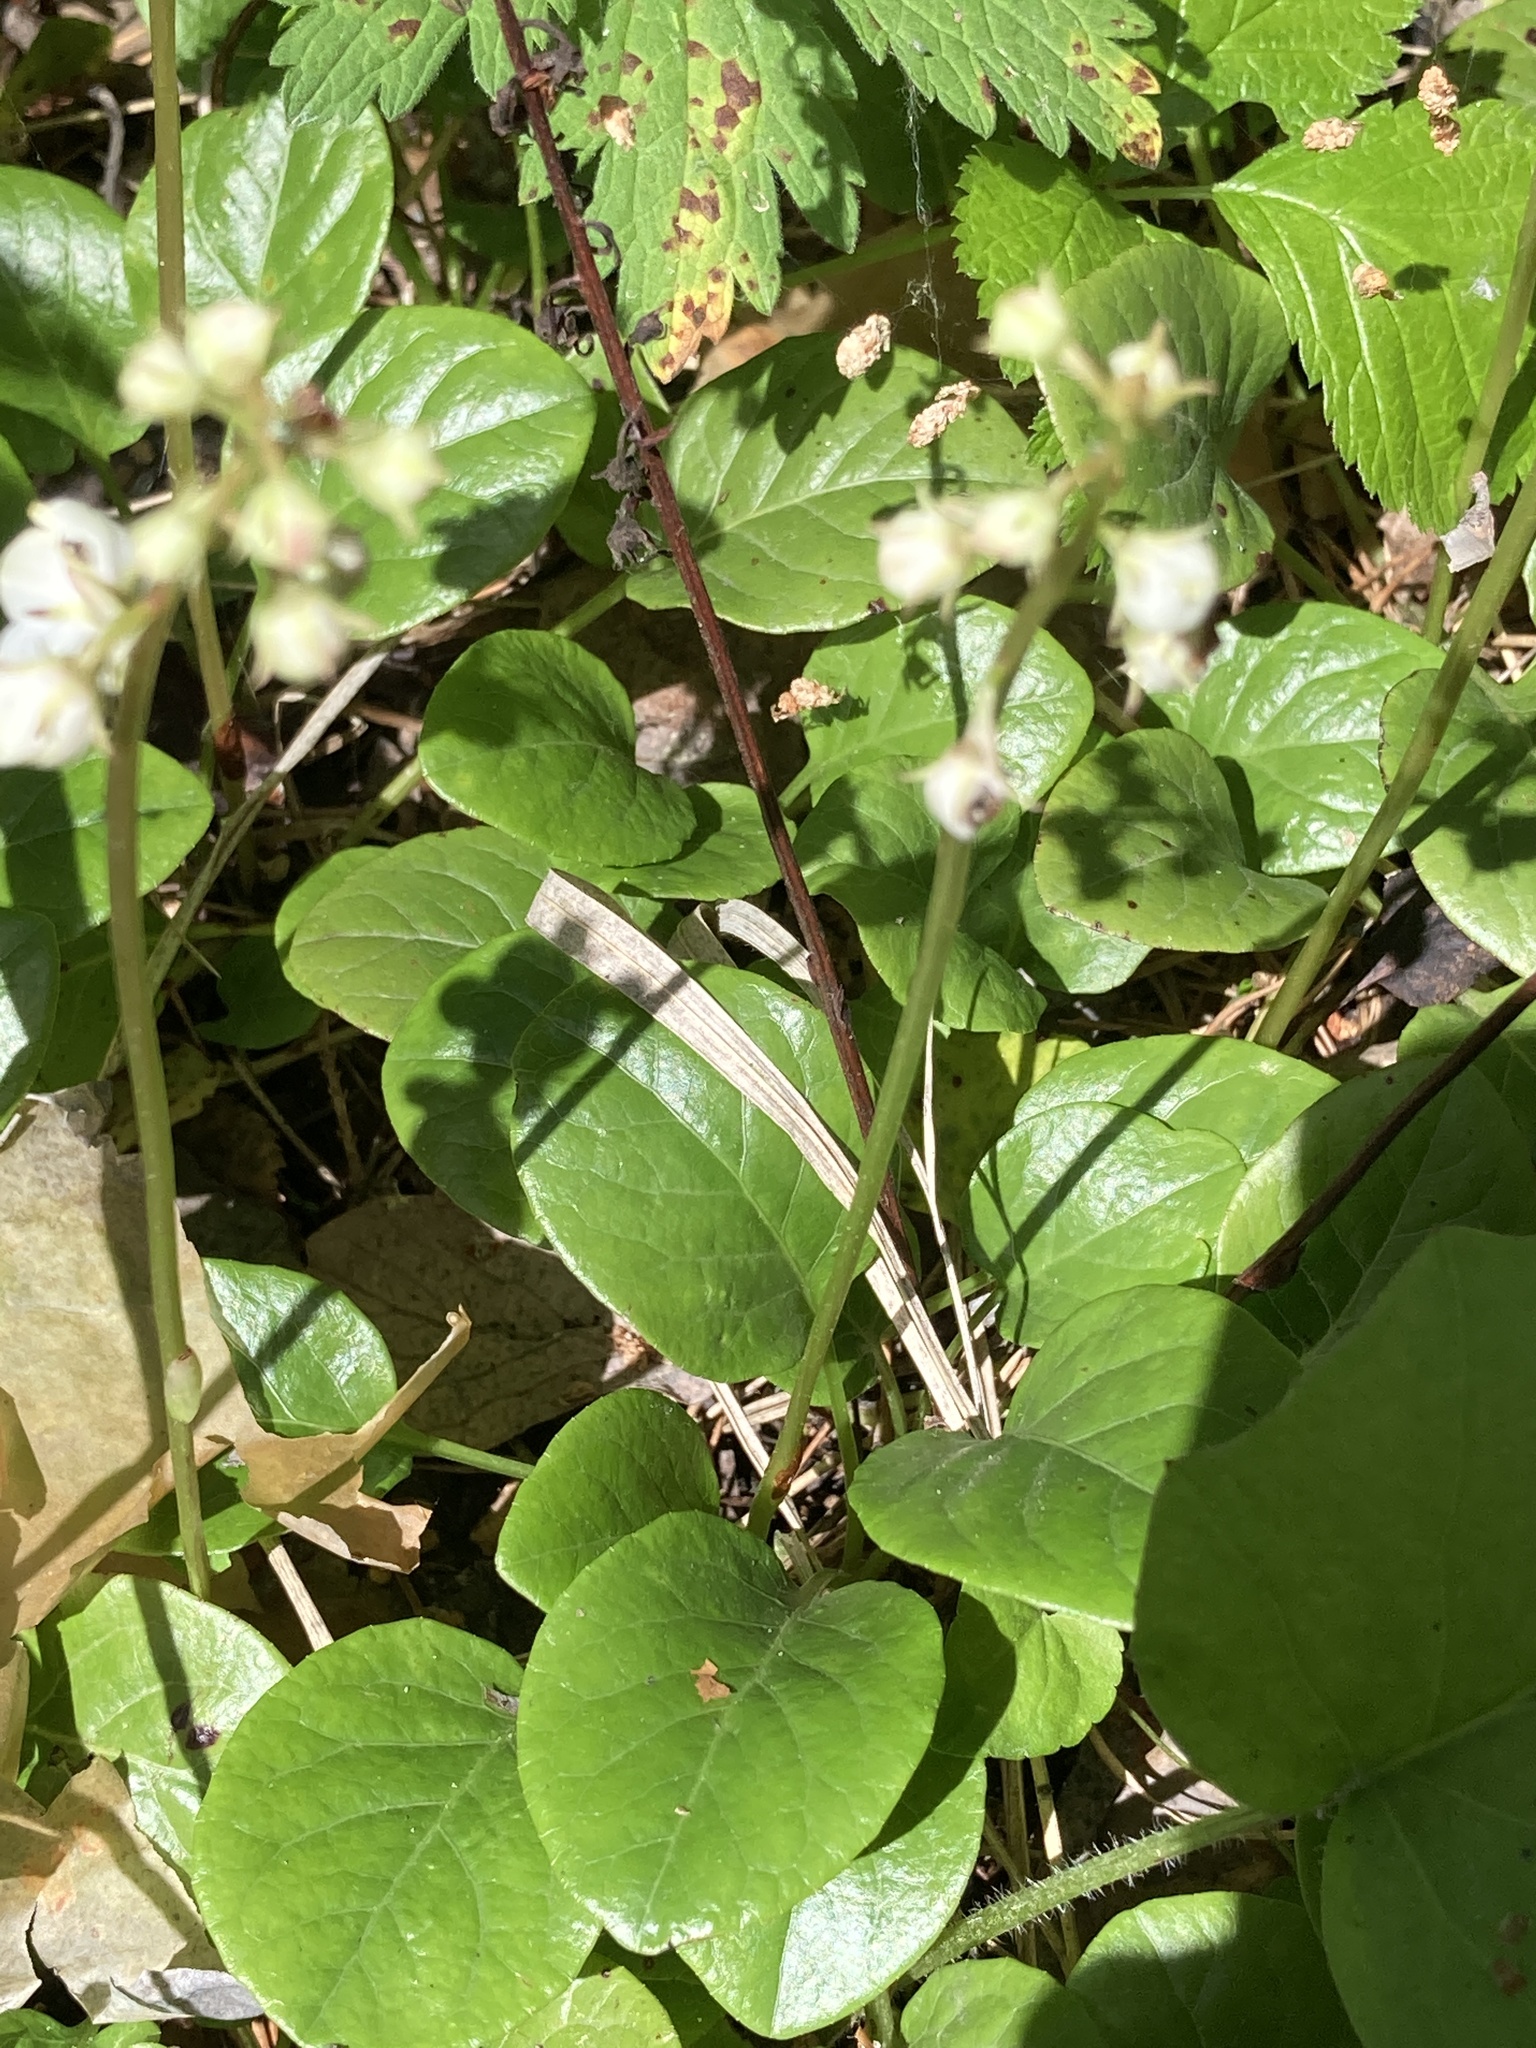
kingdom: Plantae
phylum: Tracheophyta
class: Magnoliopsida
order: Ericales
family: Ericaceae
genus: Pyrola
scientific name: Pyrola rotundifolia
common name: Round-leaved wintergreen
